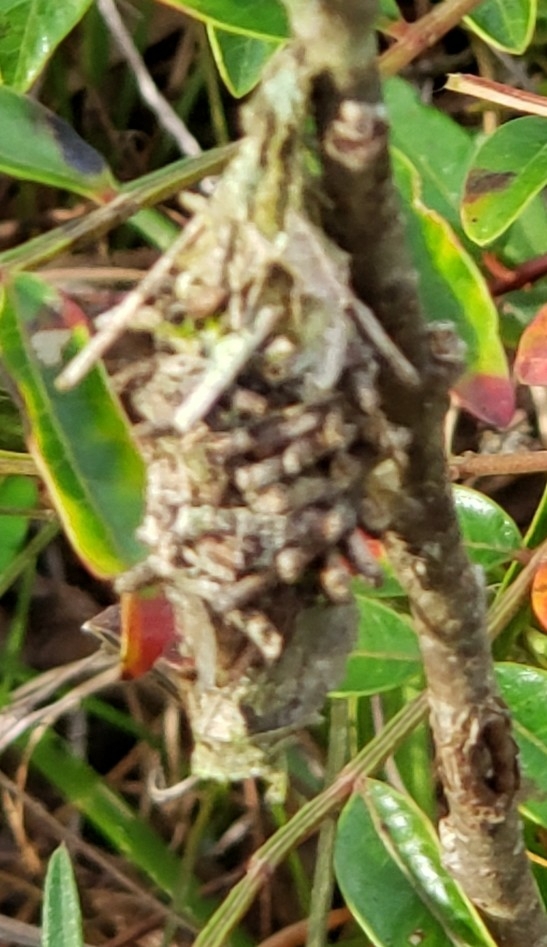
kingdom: Animalia
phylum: Arthropoda
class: Insecta
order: Lepidoptera
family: Psychidae
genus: Oiketicus
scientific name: Oiketicus
